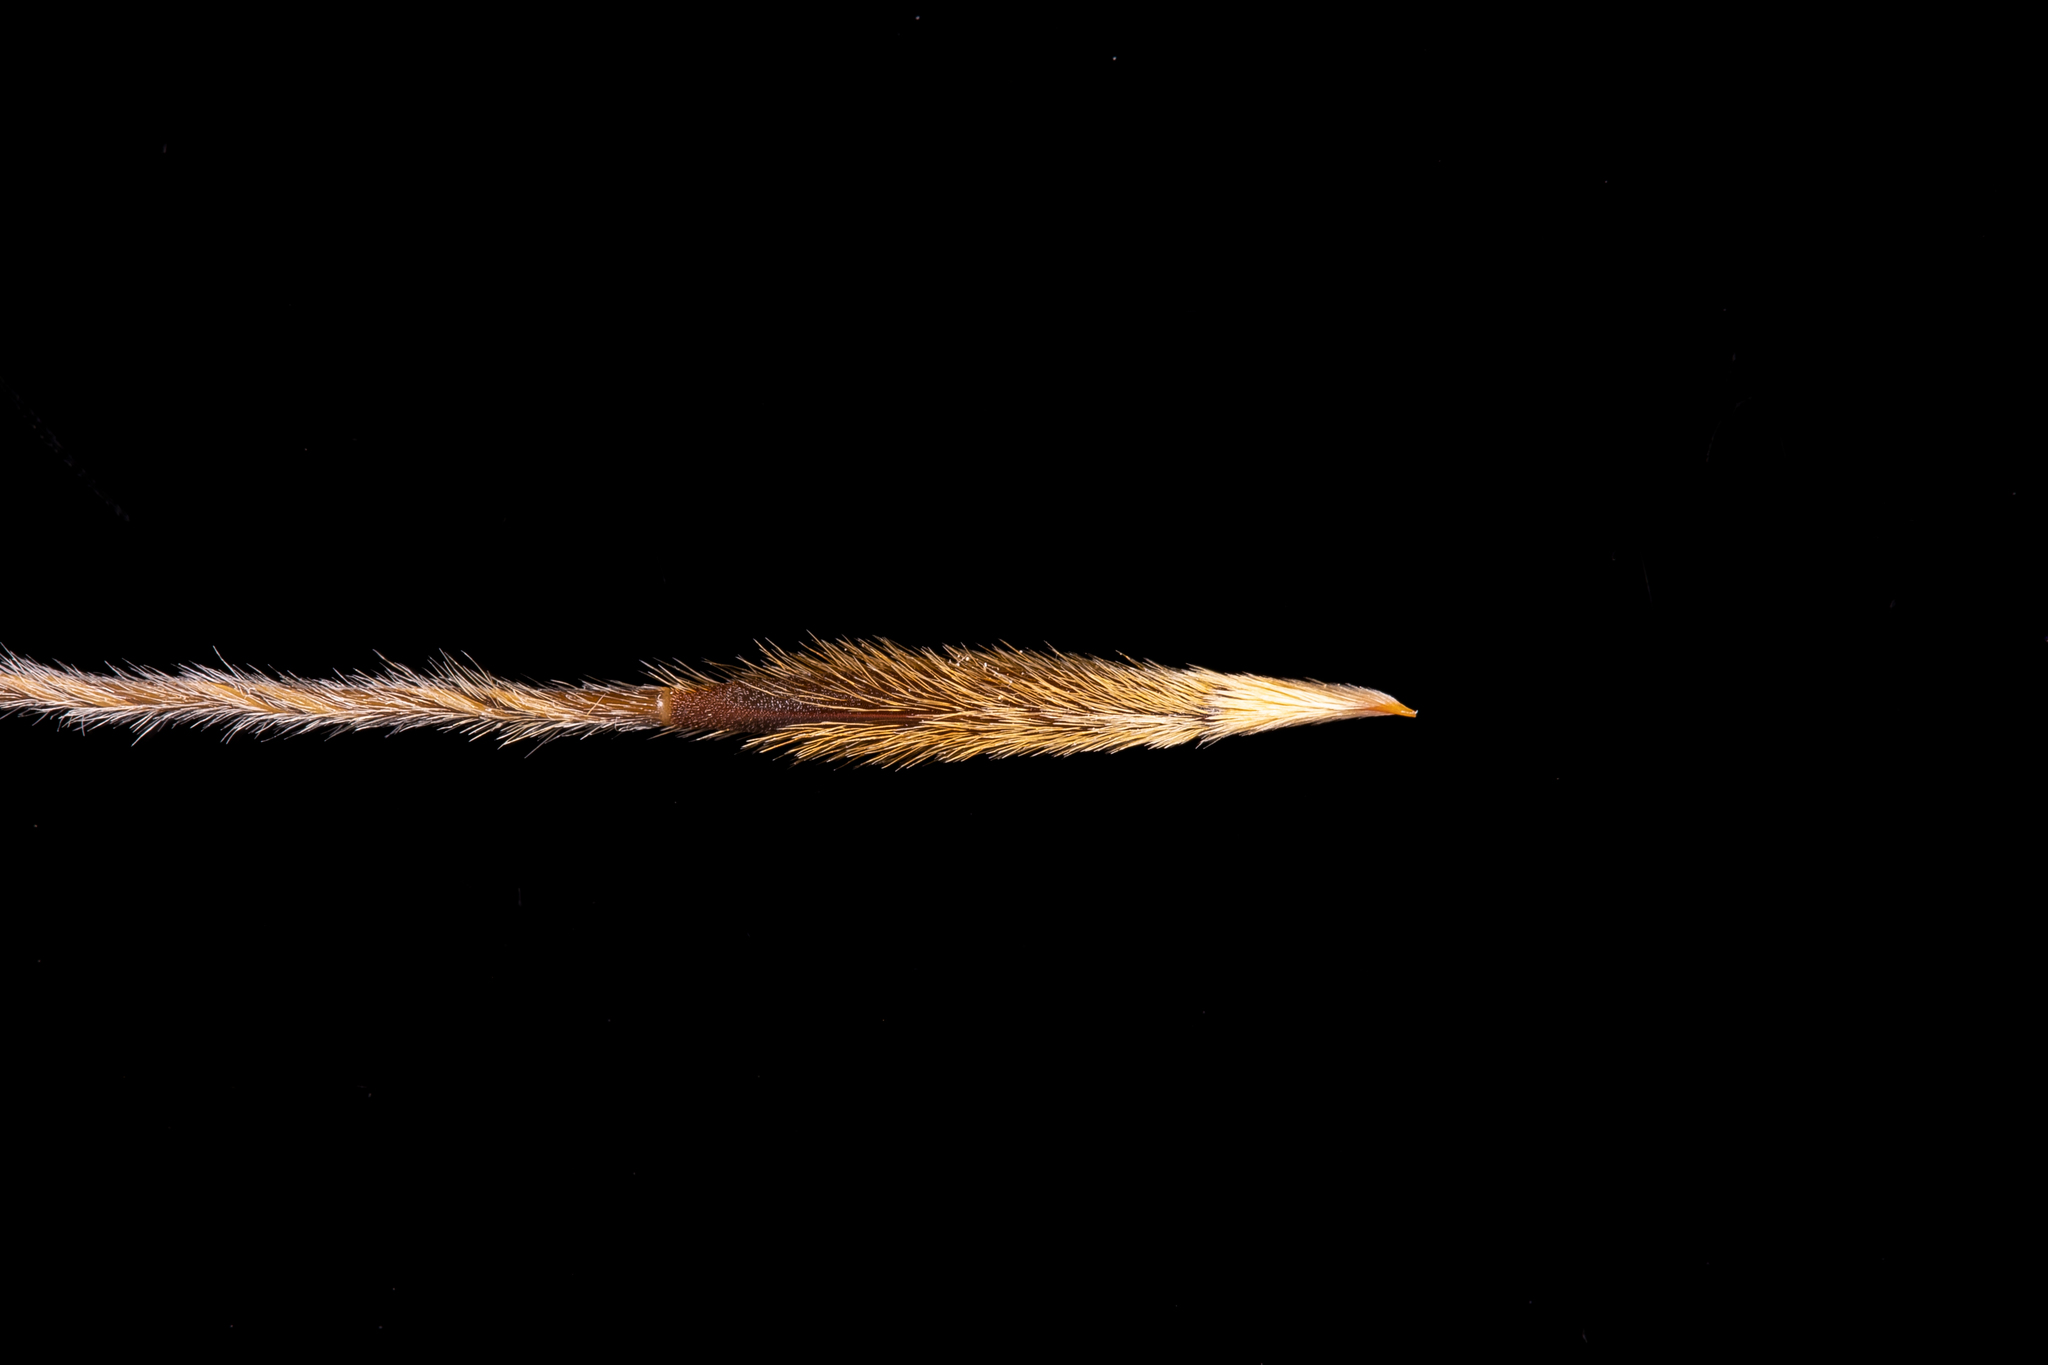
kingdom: Plantae
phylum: Tracheophyta
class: Liliopsida
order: Poales
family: Poaceae
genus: Austrostipa
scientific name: Austrostipa flavescens
